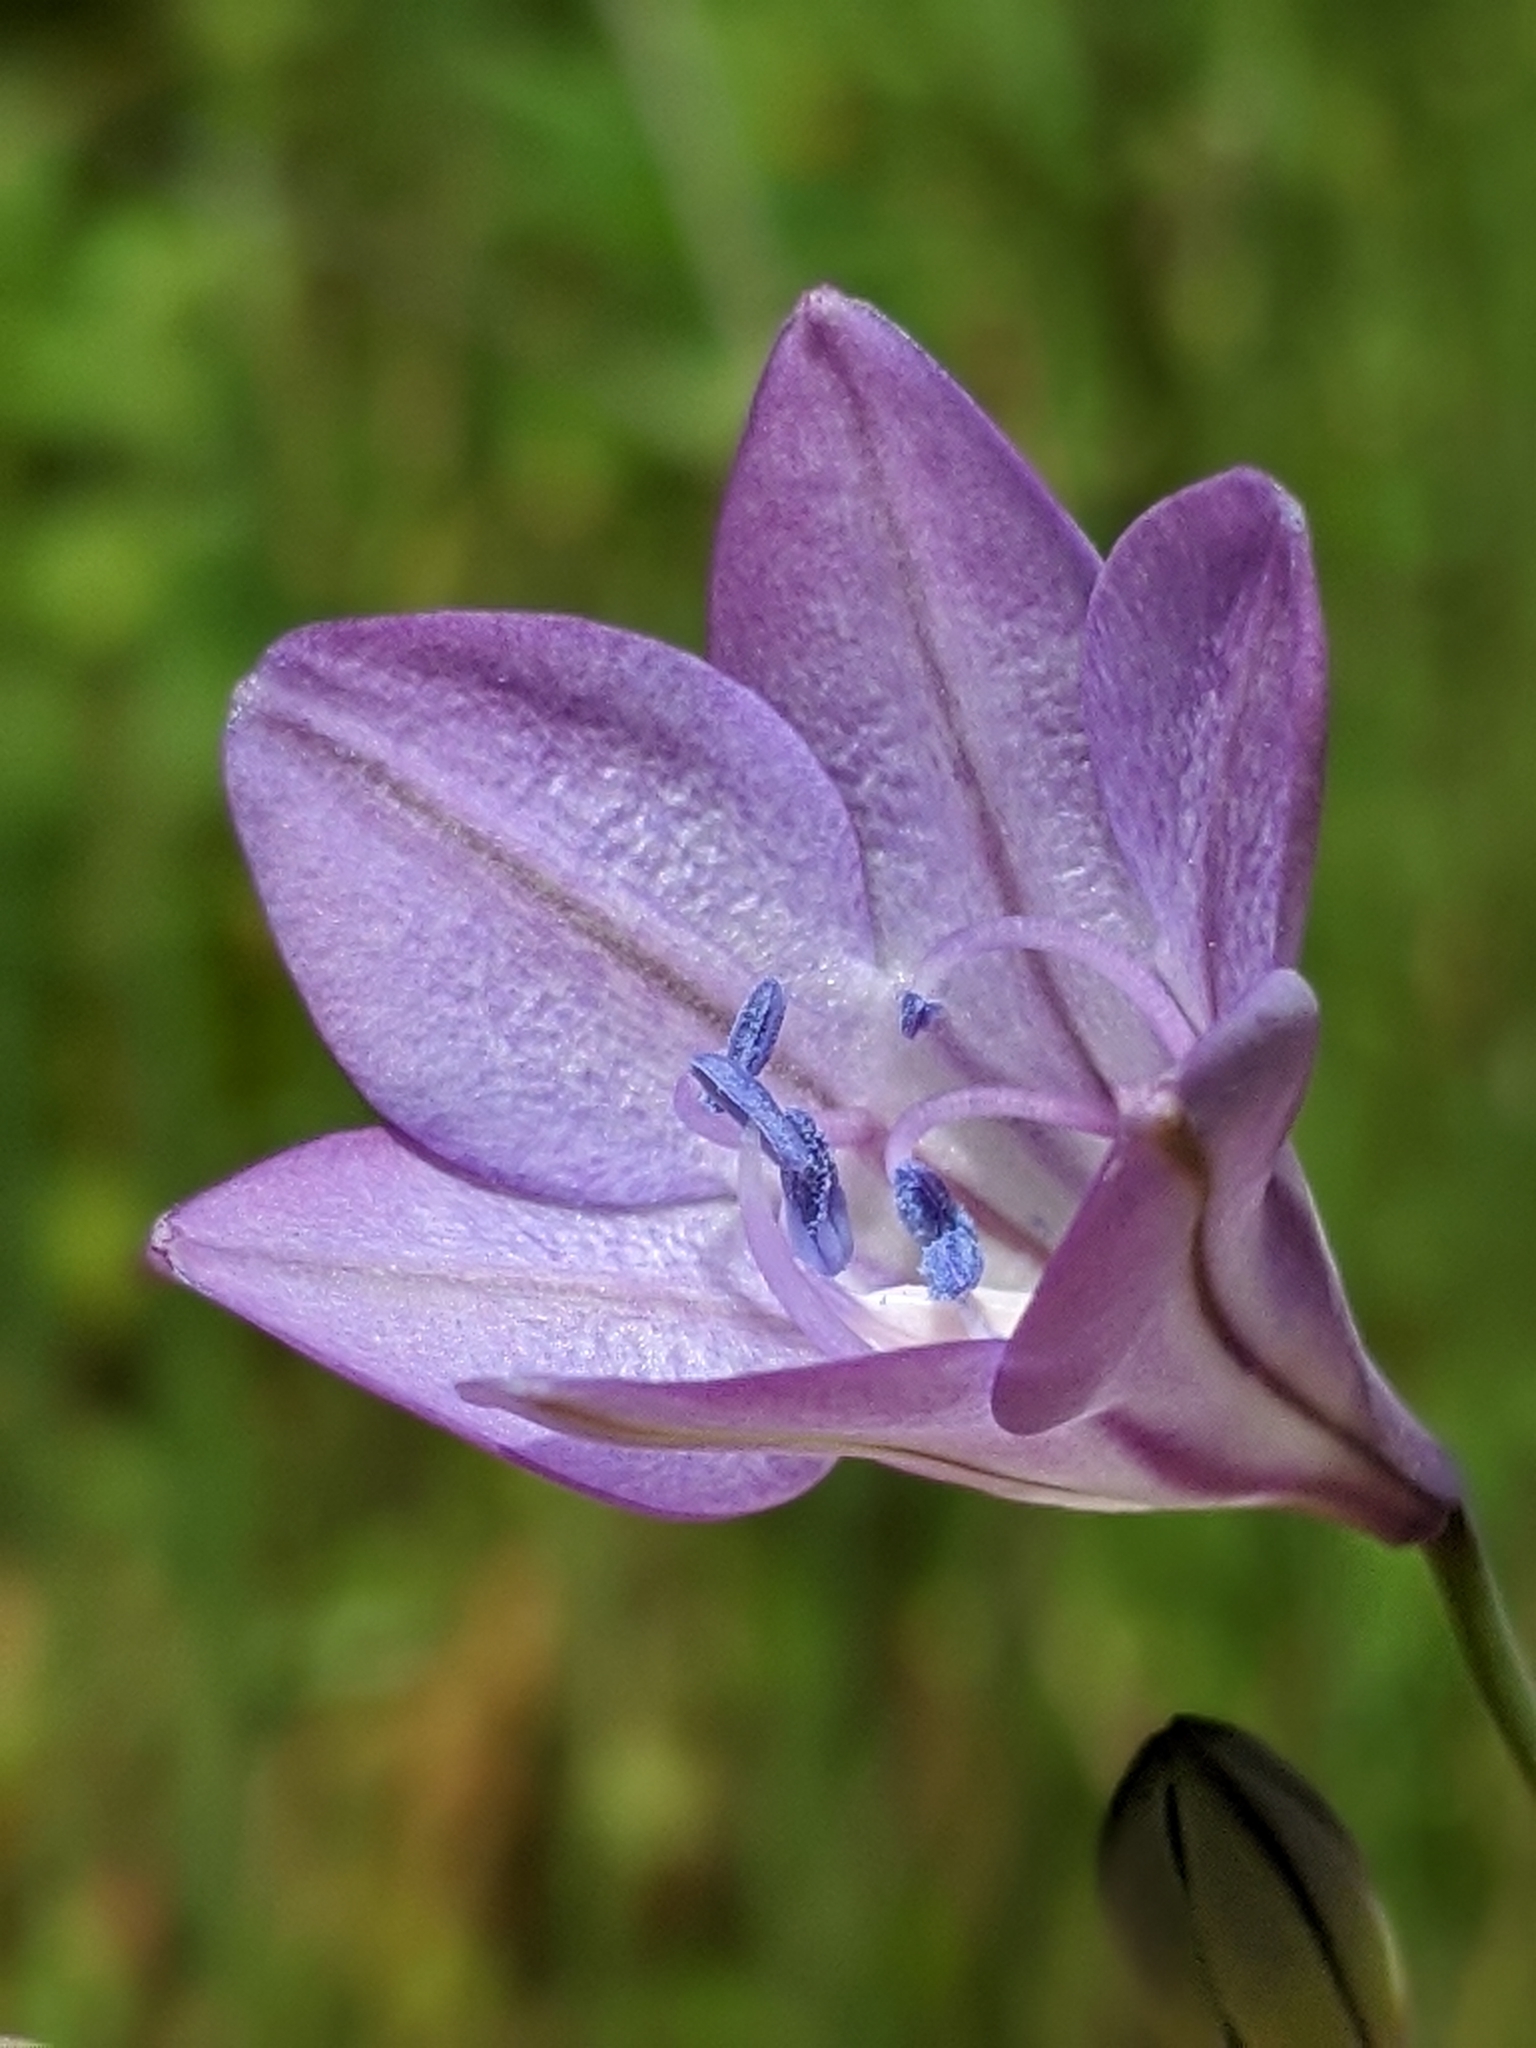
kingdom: Plantae
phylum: Tracheophyta
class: Liliopsida
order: Asparagales
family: Asparagaceae
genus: Triteleia
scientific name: Triteleia laxa
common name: Triplet-lily
